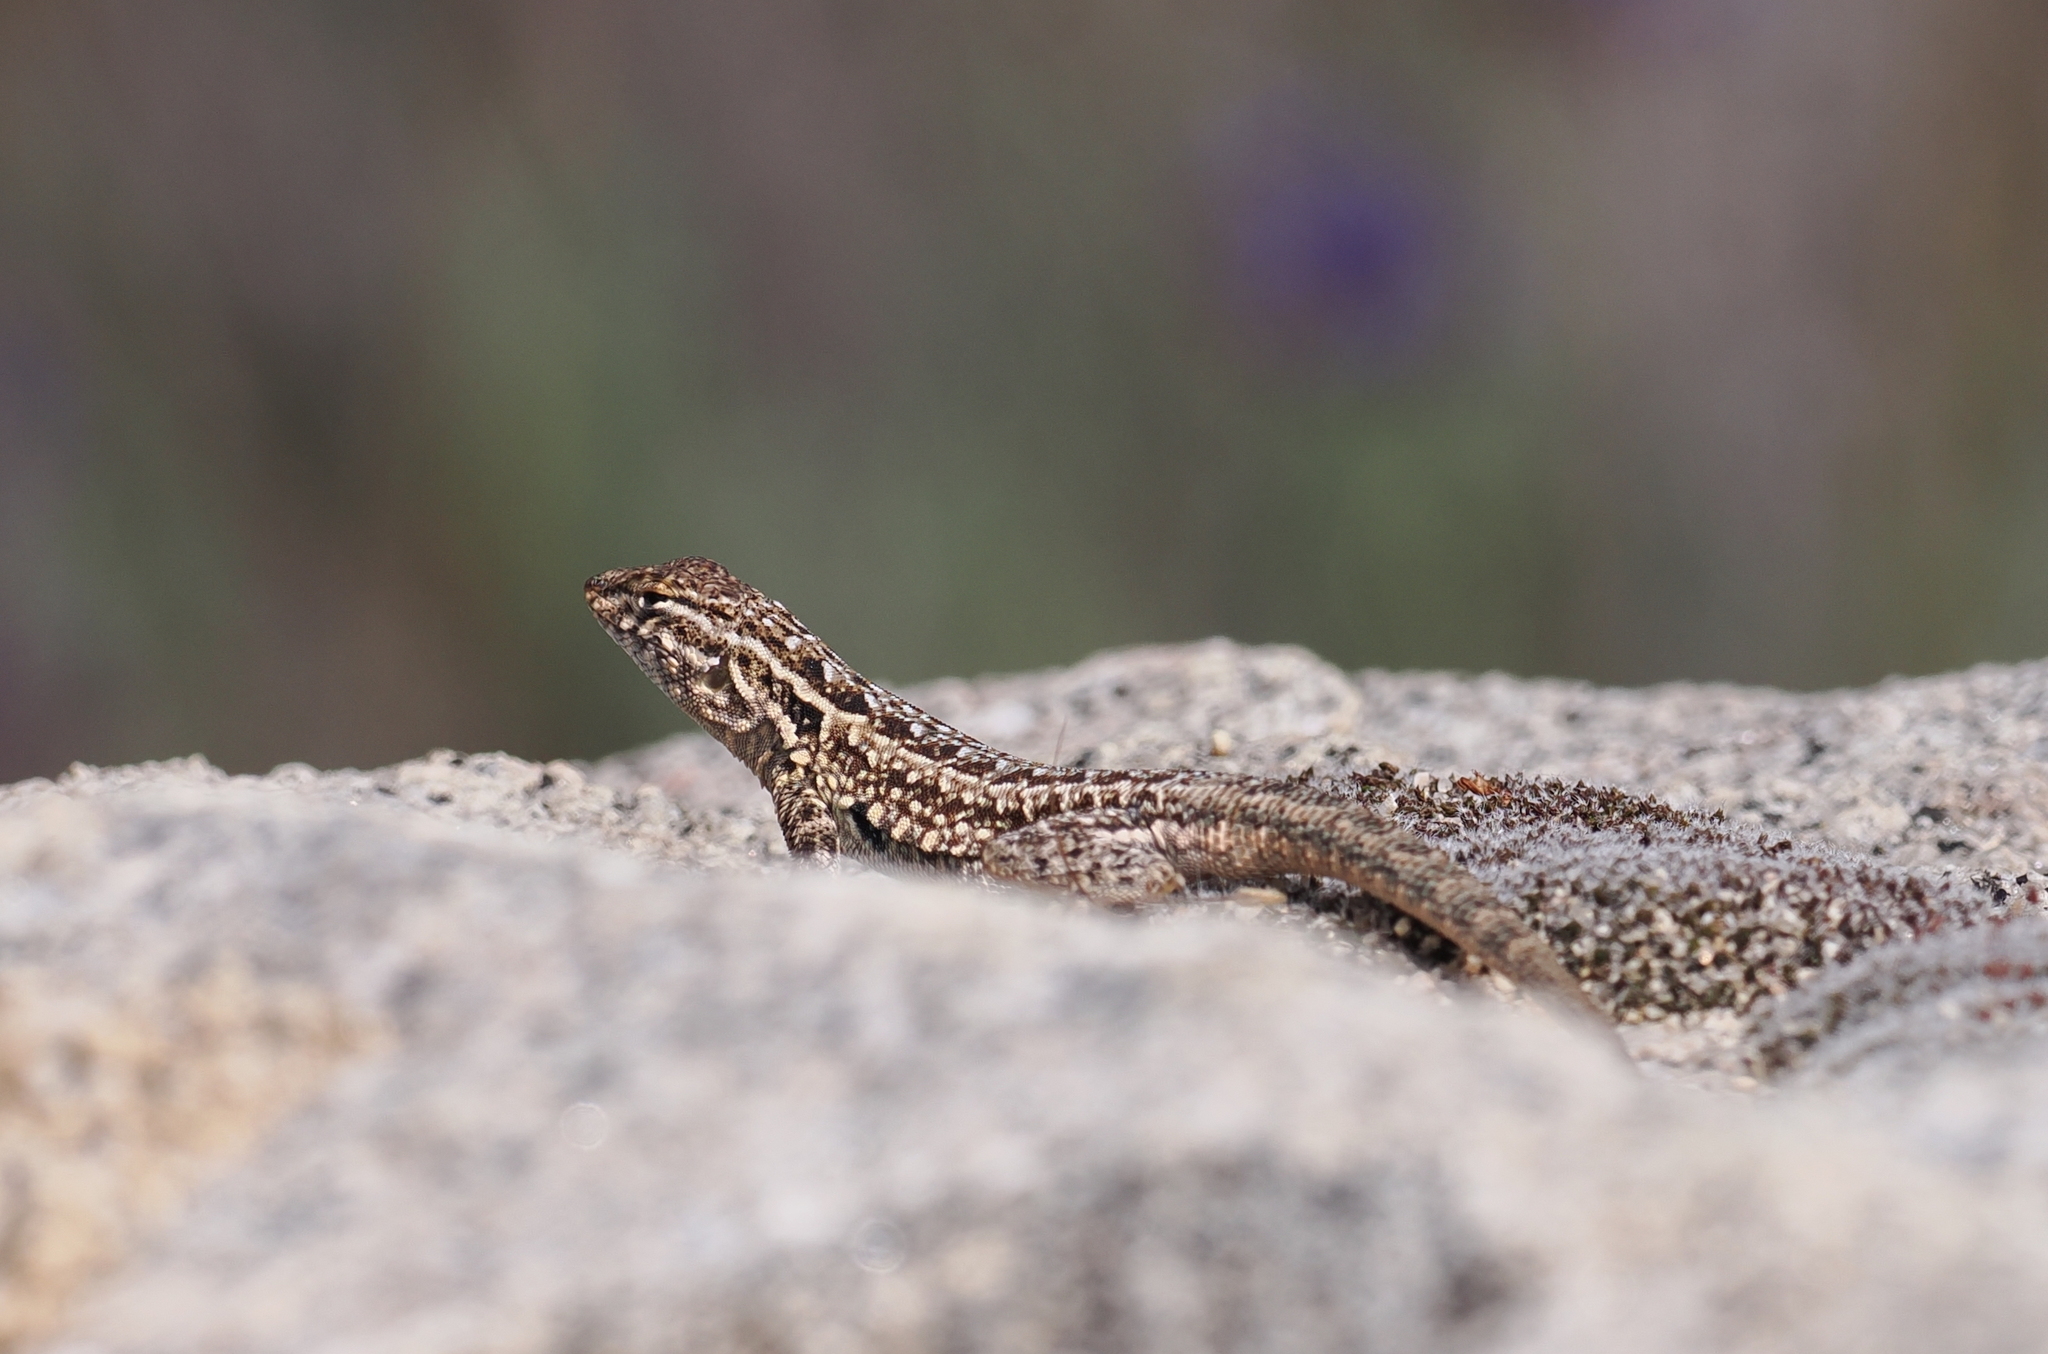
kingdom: Animalia
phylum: Chordata
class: Squamata
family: Phrynosomatidae
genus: Uta
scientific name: Uta stansburiana
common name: Side-blotched lizard
